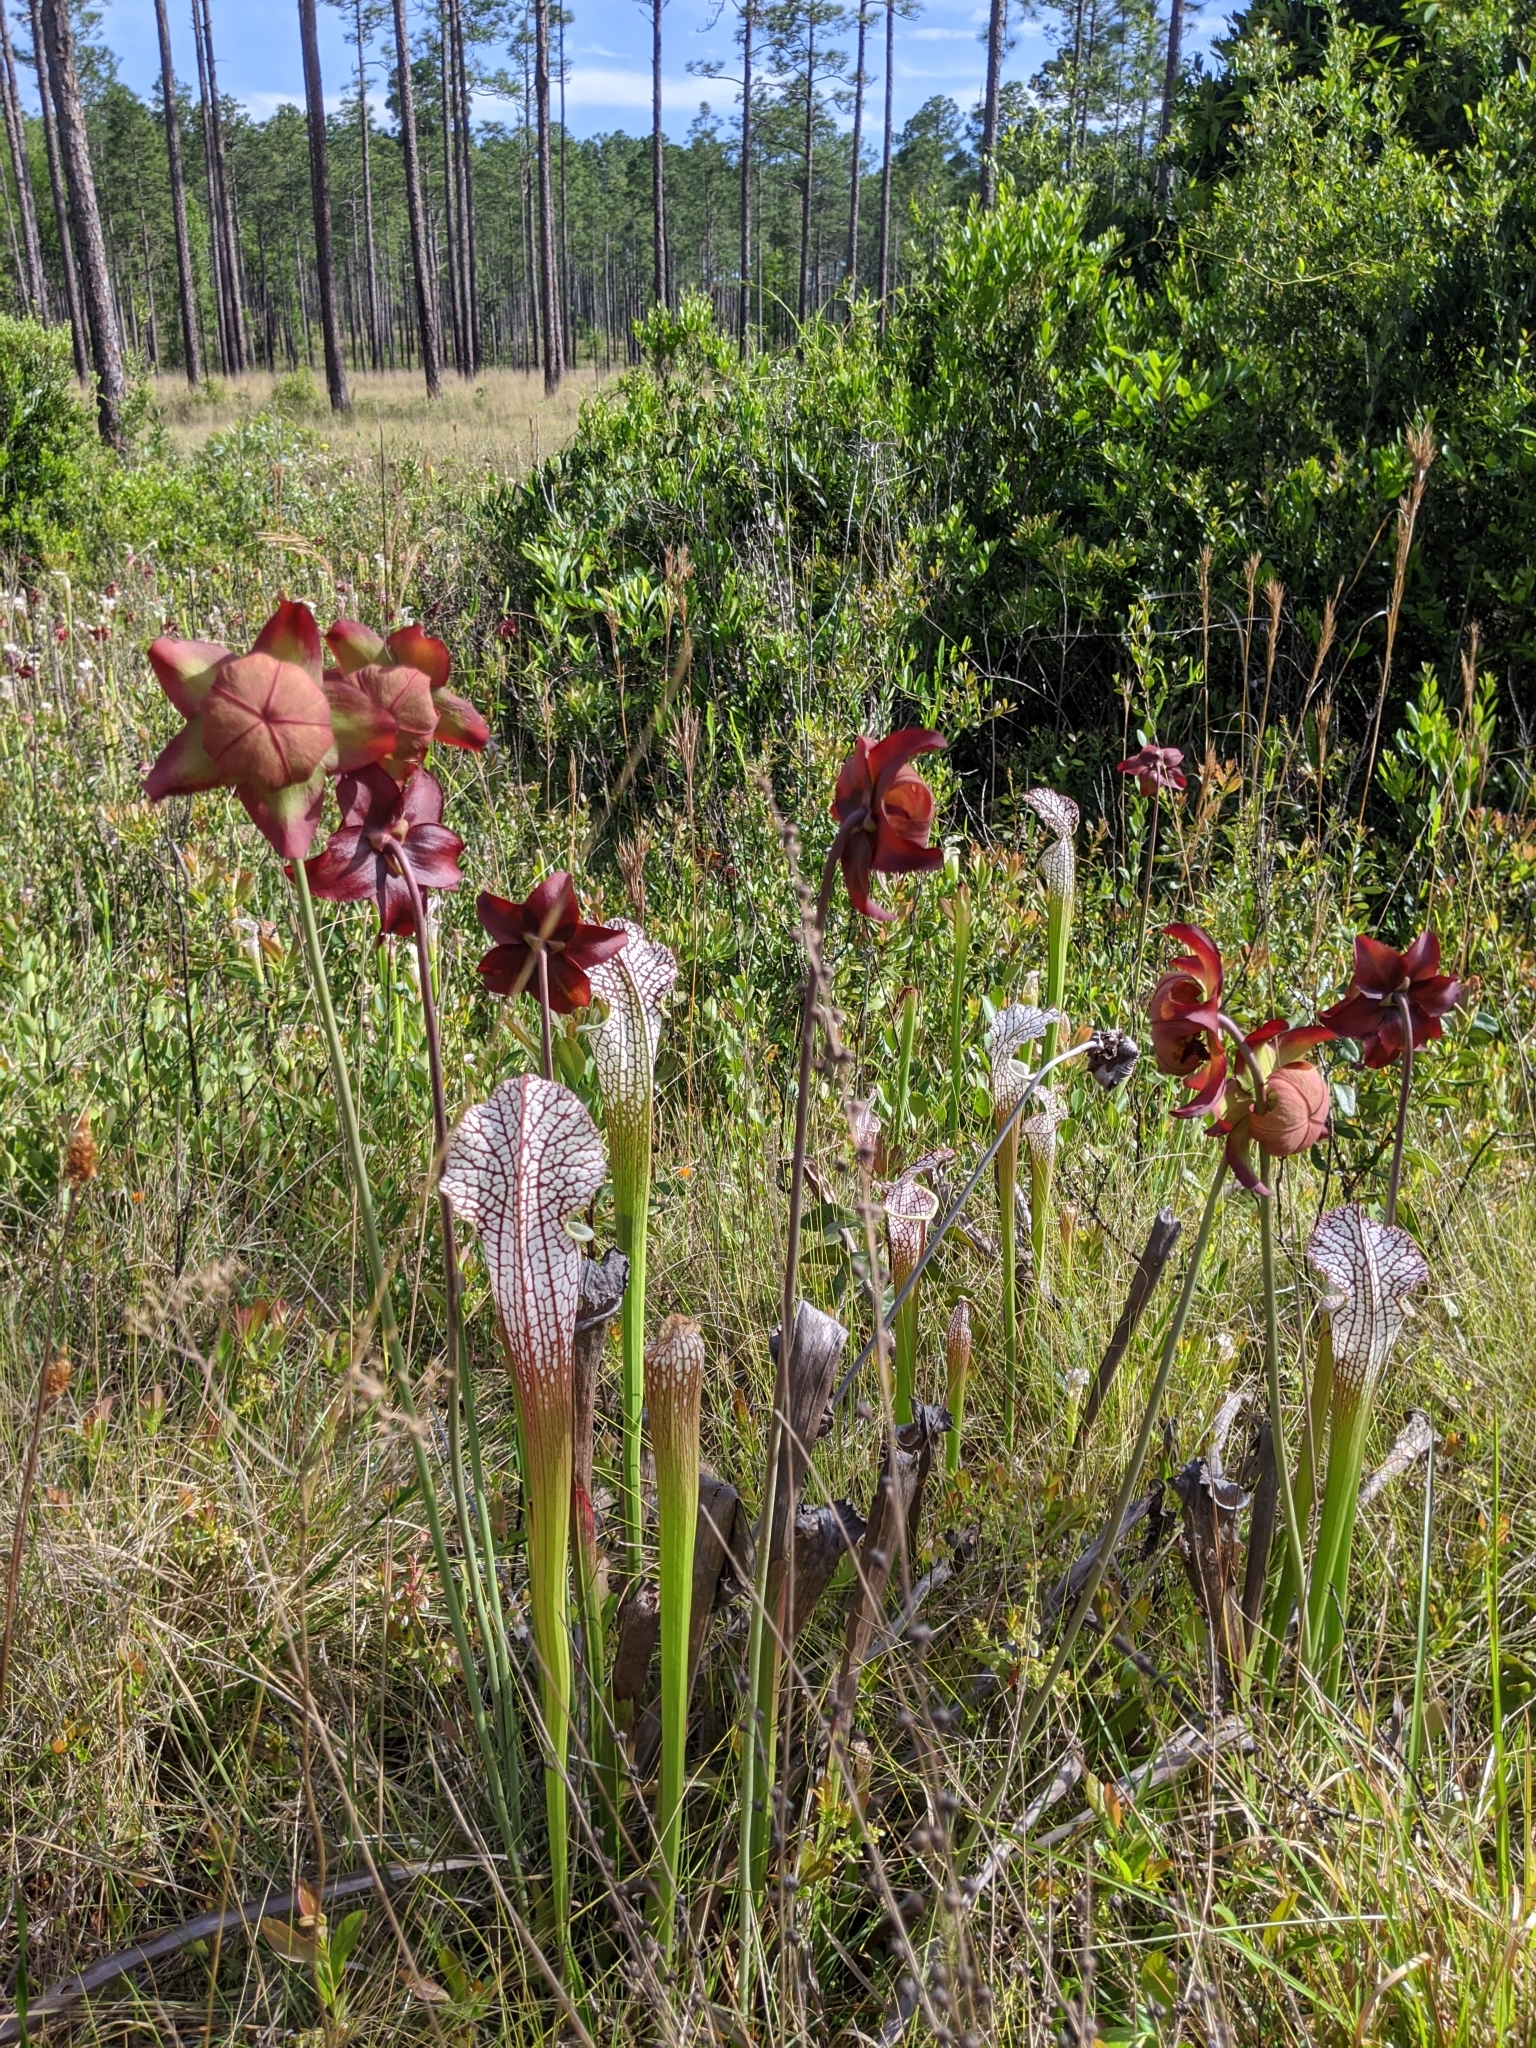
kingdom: Plantae
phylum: Tracheophyta
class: Magnoliopsida
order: Ericales
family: Sarraceniaceae
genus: Sarracenia
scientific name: Sarracenia leucophylla
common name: Purple trumpetleaf
